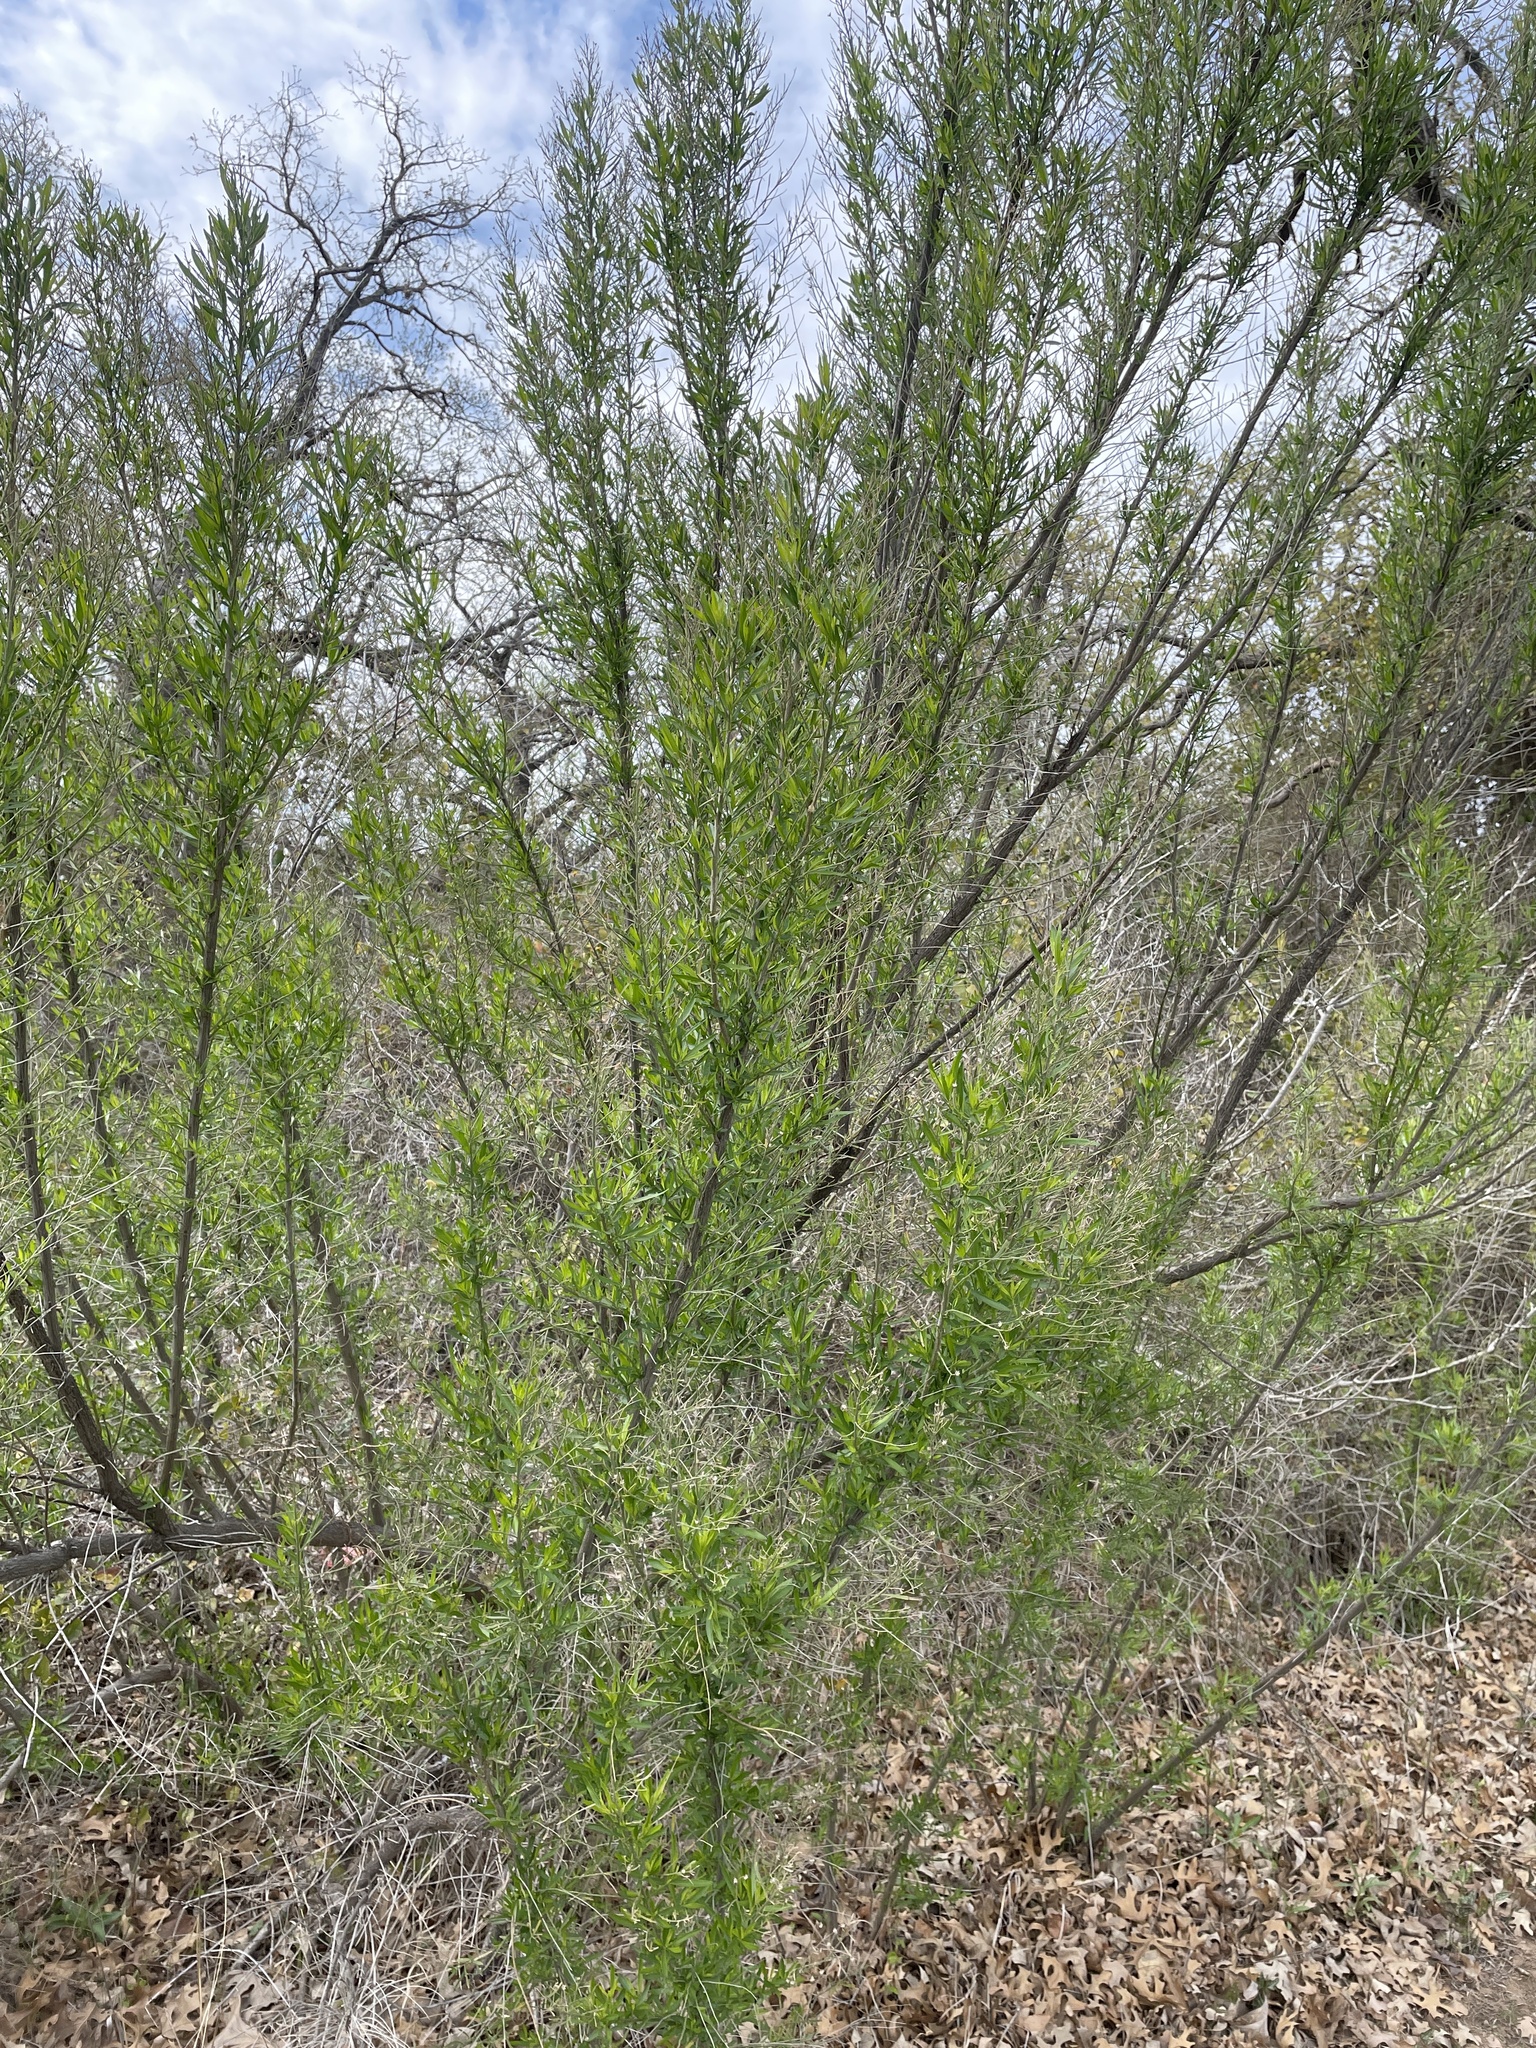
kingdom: Plantae
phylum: Tracheophyta
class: Magnoliopsida
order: Asterales
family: Asteraceae
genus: Baccharis
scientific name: Baccharis neglecta
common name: Roosevelt-weed
